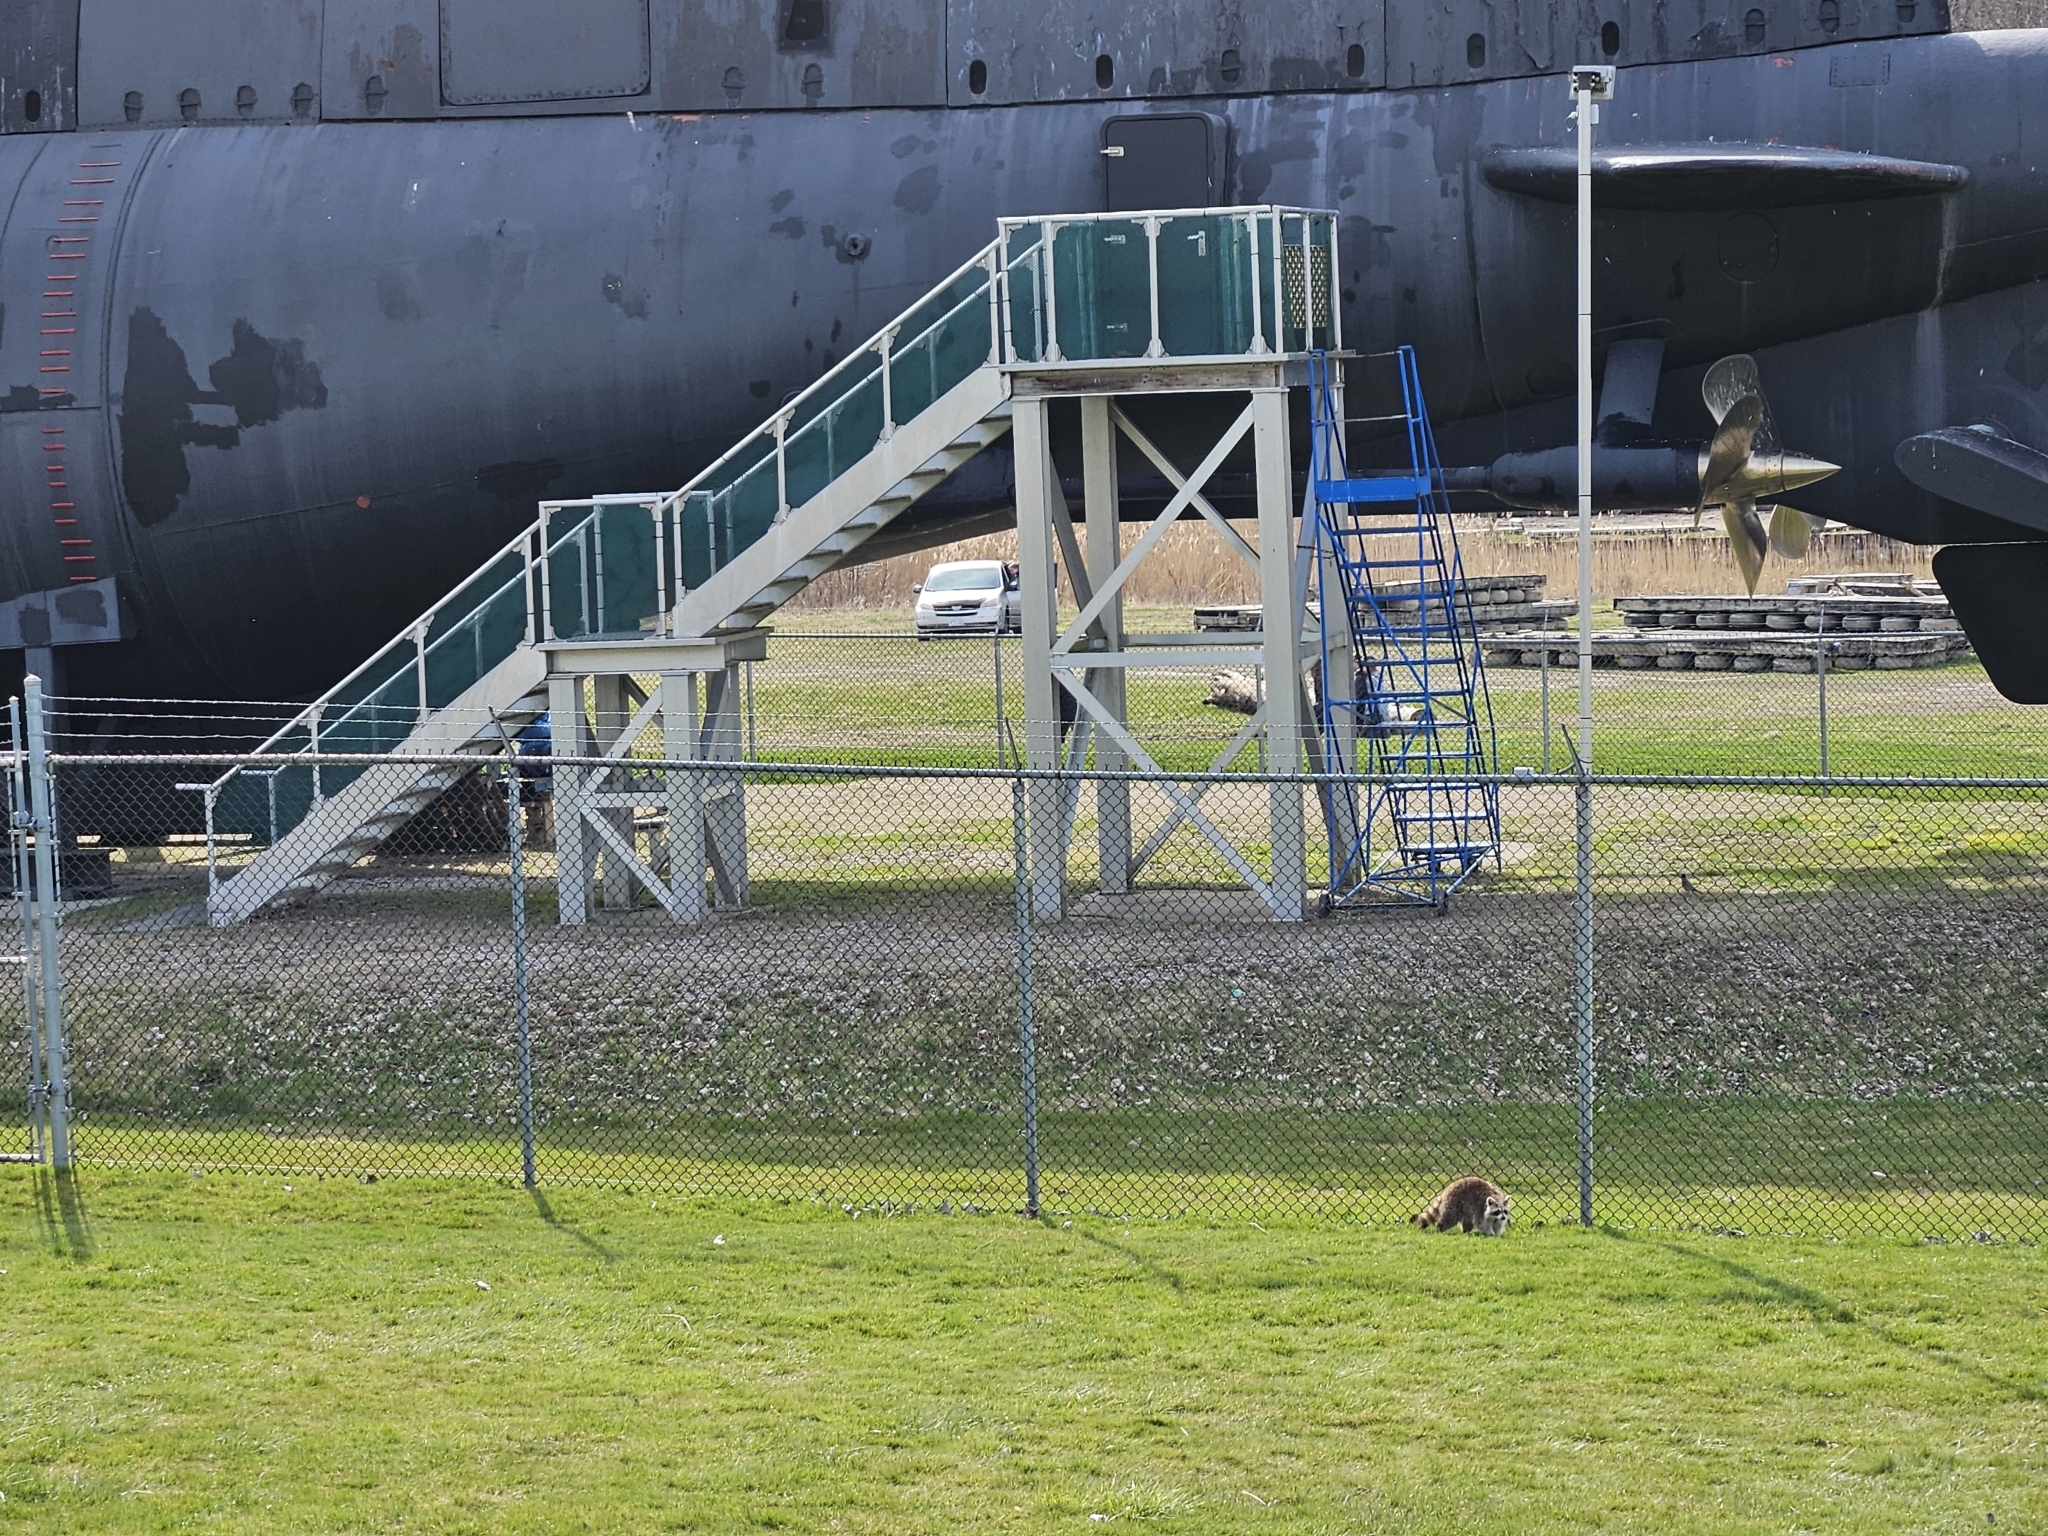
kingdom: Animalia
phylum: Chordata
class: Mammalia
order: Carnivora
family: Procyonidae
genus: Procyon
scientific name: Procyon lotor
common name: Raccoon
